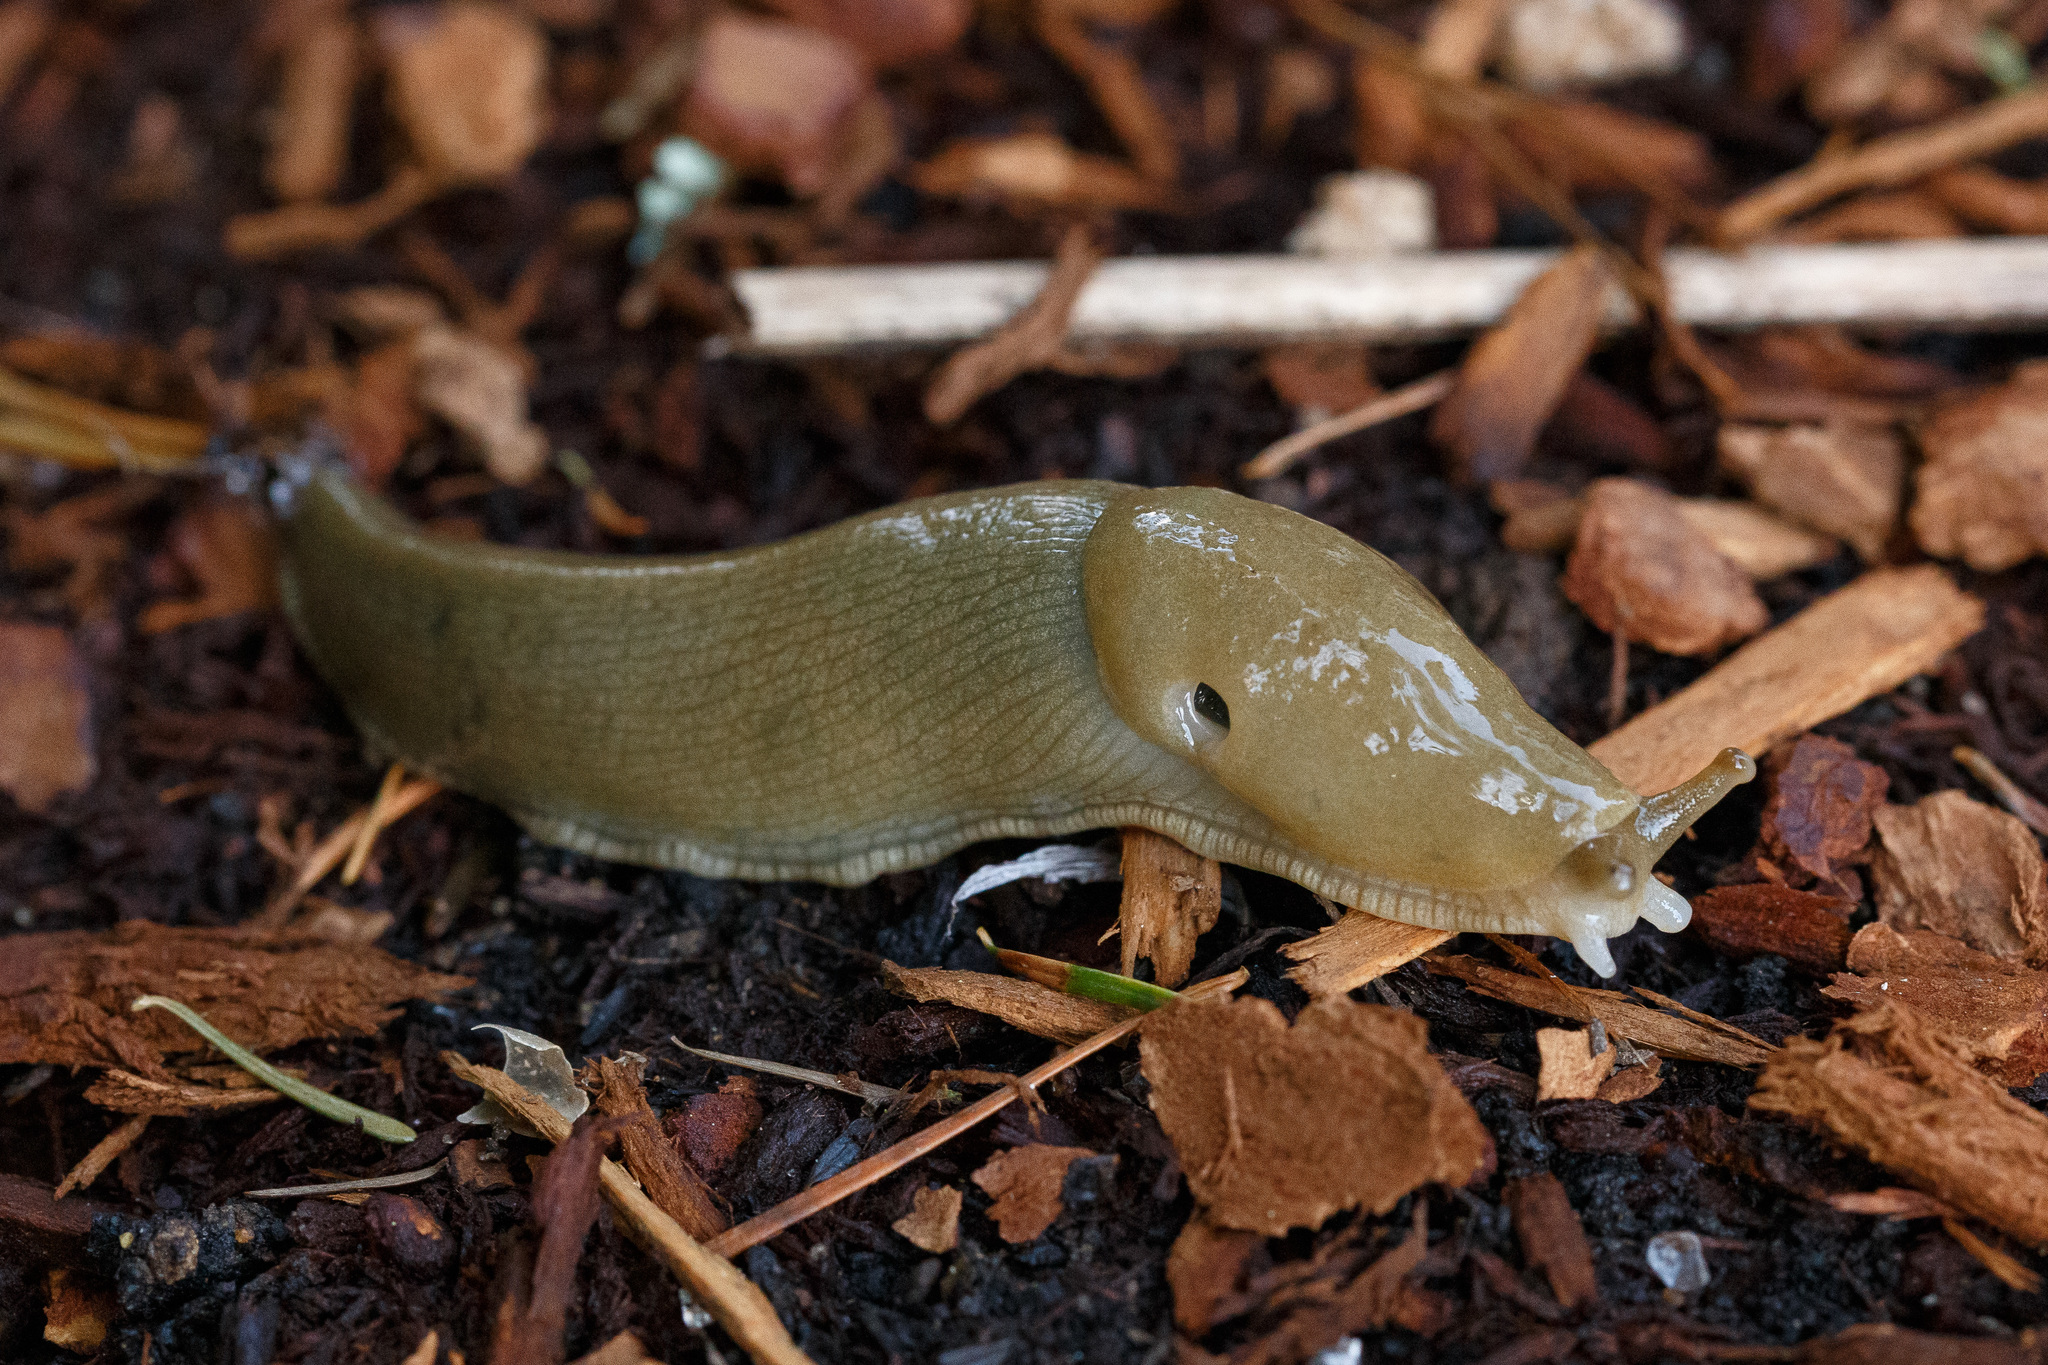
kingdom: Animalia
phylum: Mollusca
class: Gastropoda
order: Stylommatophora
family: Ariolimacidae
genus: Ariolimax
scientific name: Ariolimax columbianus
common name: Pacific banana slug
